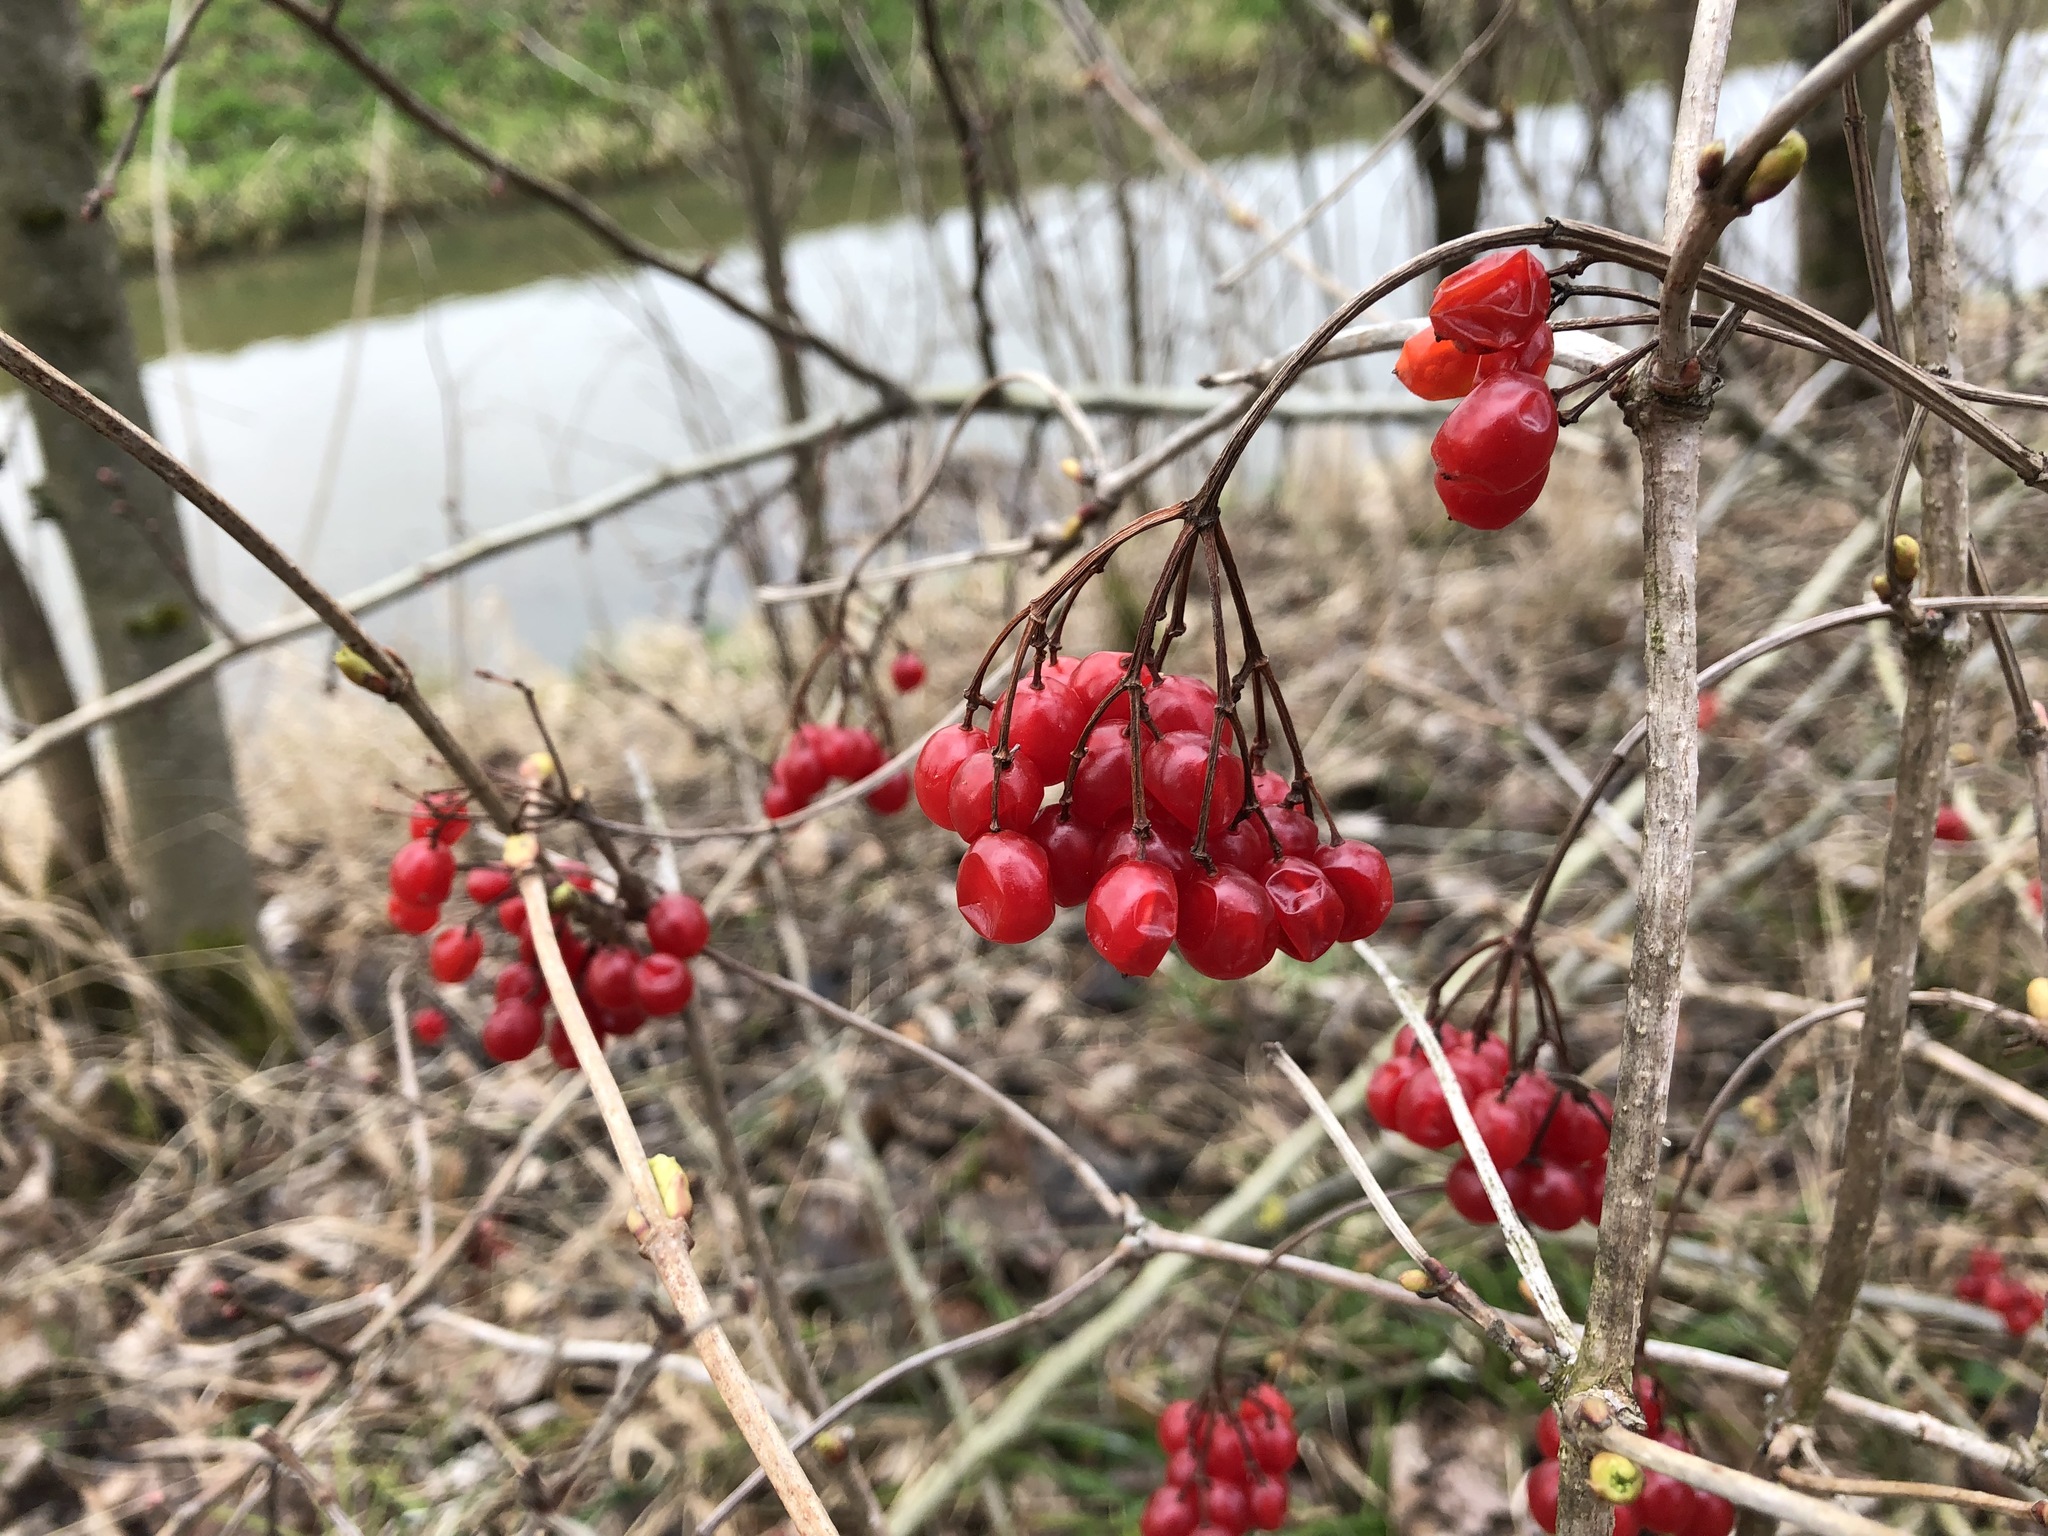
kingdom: Plantae
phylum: Tracheophyta
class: Magnoliopsida
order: Dipsacales
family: Viburnaceae
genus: Viburnum
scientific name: Viburnum opulus
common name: Guelder-rose
